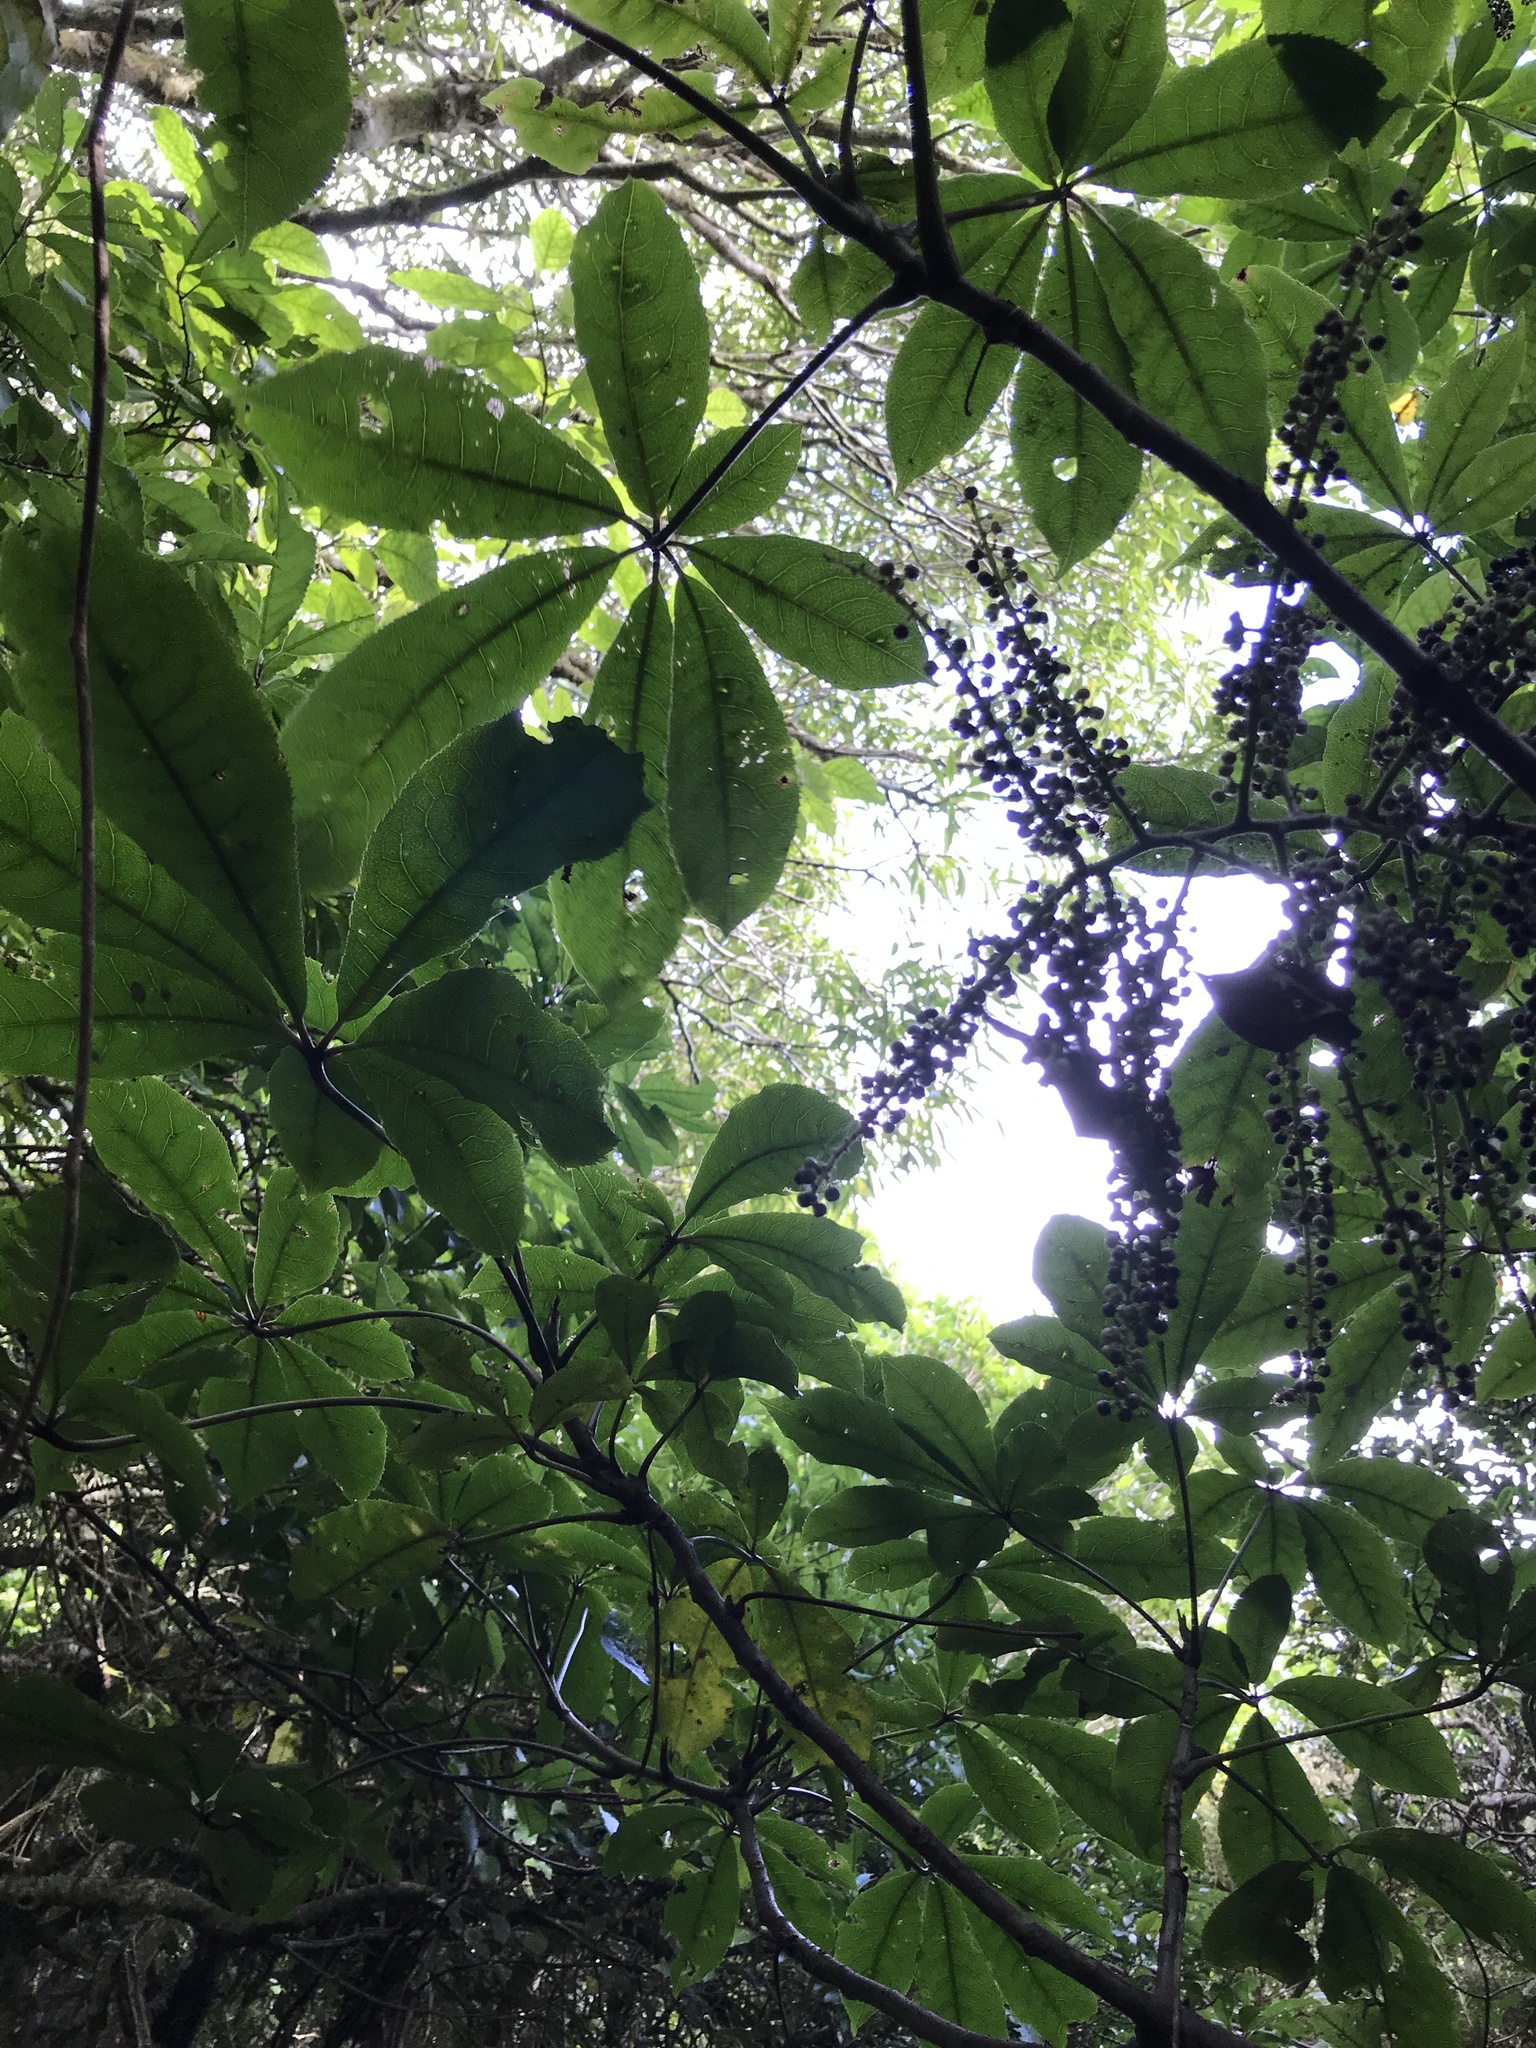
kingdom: Plantae
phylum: Tracheophyta
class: Magnoliopsida
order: Apiales
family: Araliaceae
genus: Schefflera
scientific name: Schefflera digitata
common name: Pate
